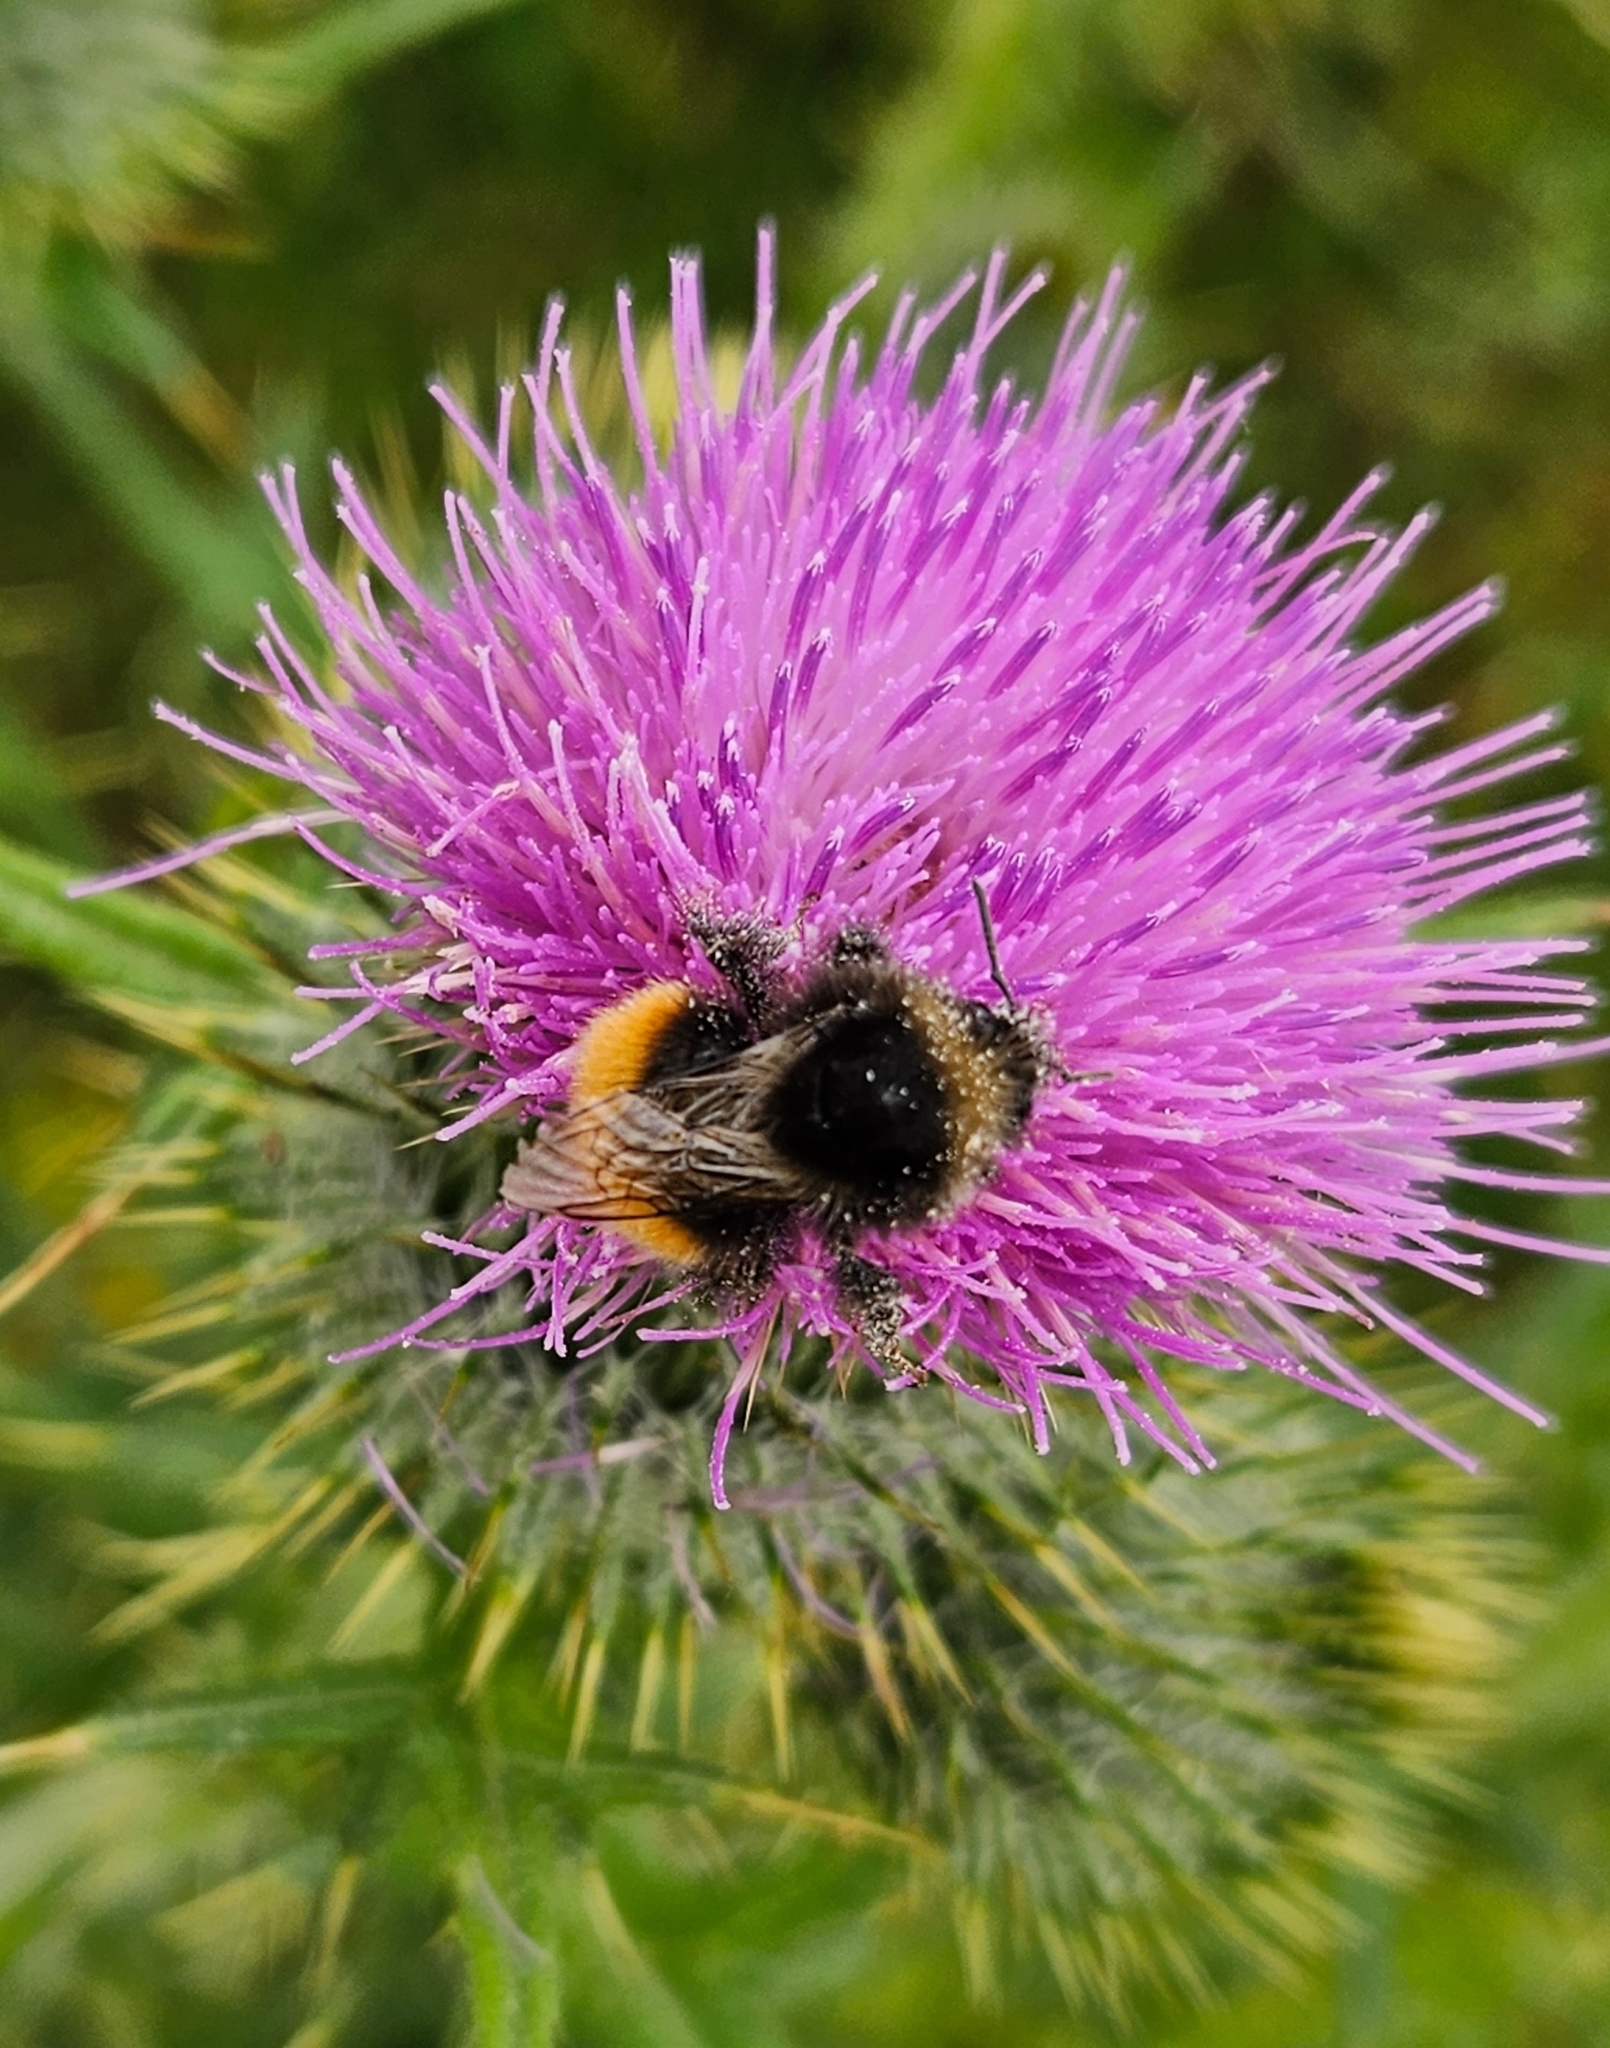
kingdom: Animalia
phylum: Arthropoda
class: Insecta
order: Hymenoptera
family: Apidae
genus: Bombus
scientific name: Bombus monticola
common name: Bilberry humble-bee
